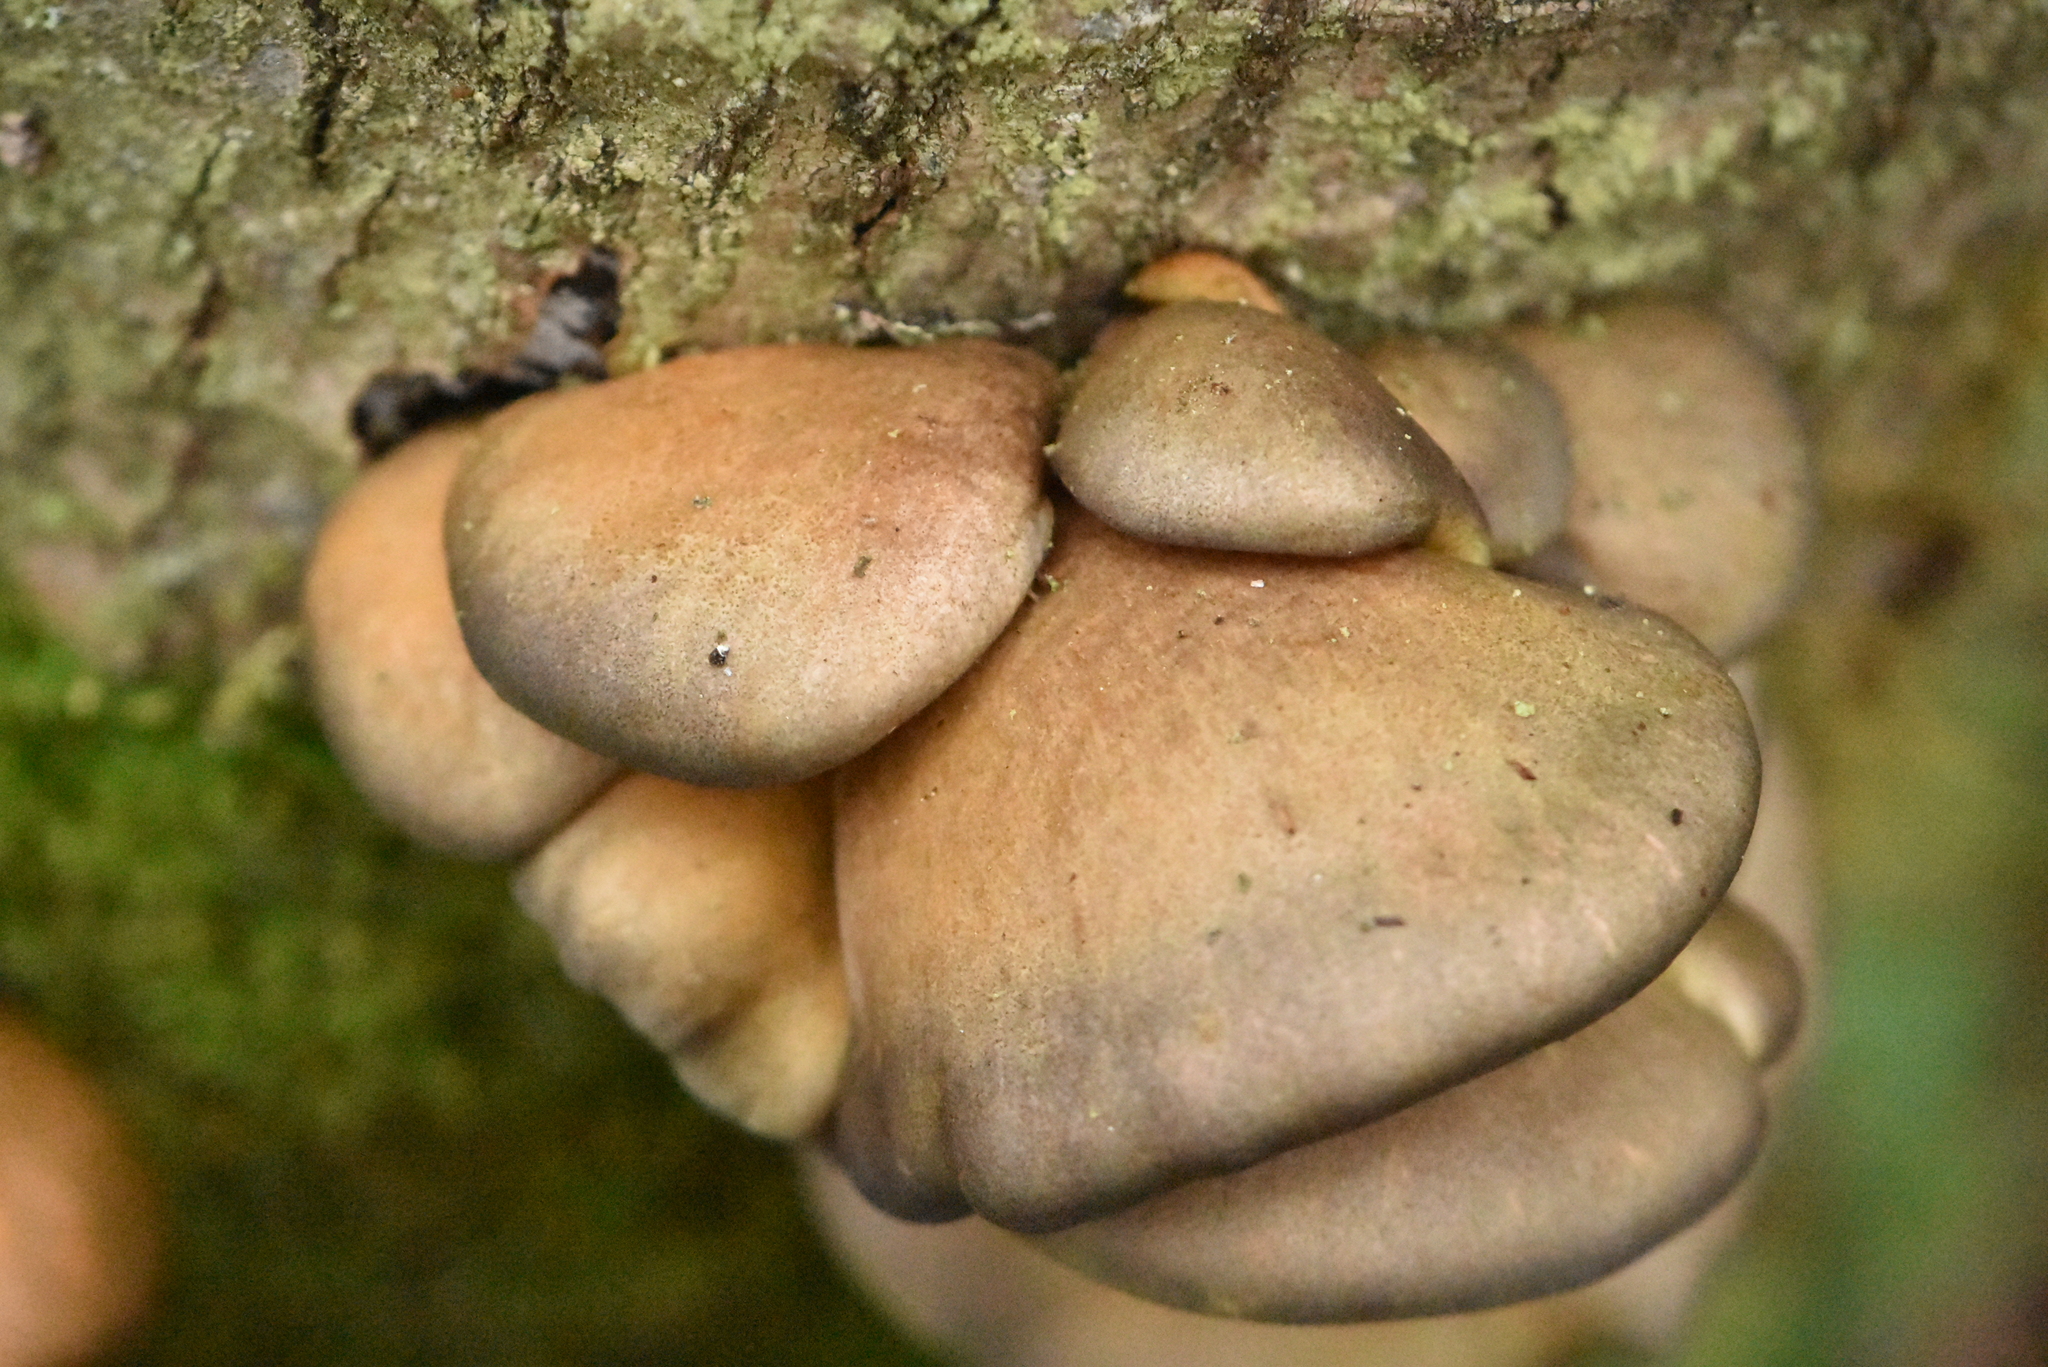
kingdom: Fungi
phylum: Basidiomycota
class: Agaricomycetes
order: Agaricales
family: Sarcomyxaceae
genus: Sarcomyxa
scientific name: Sarcomyxa serotina
